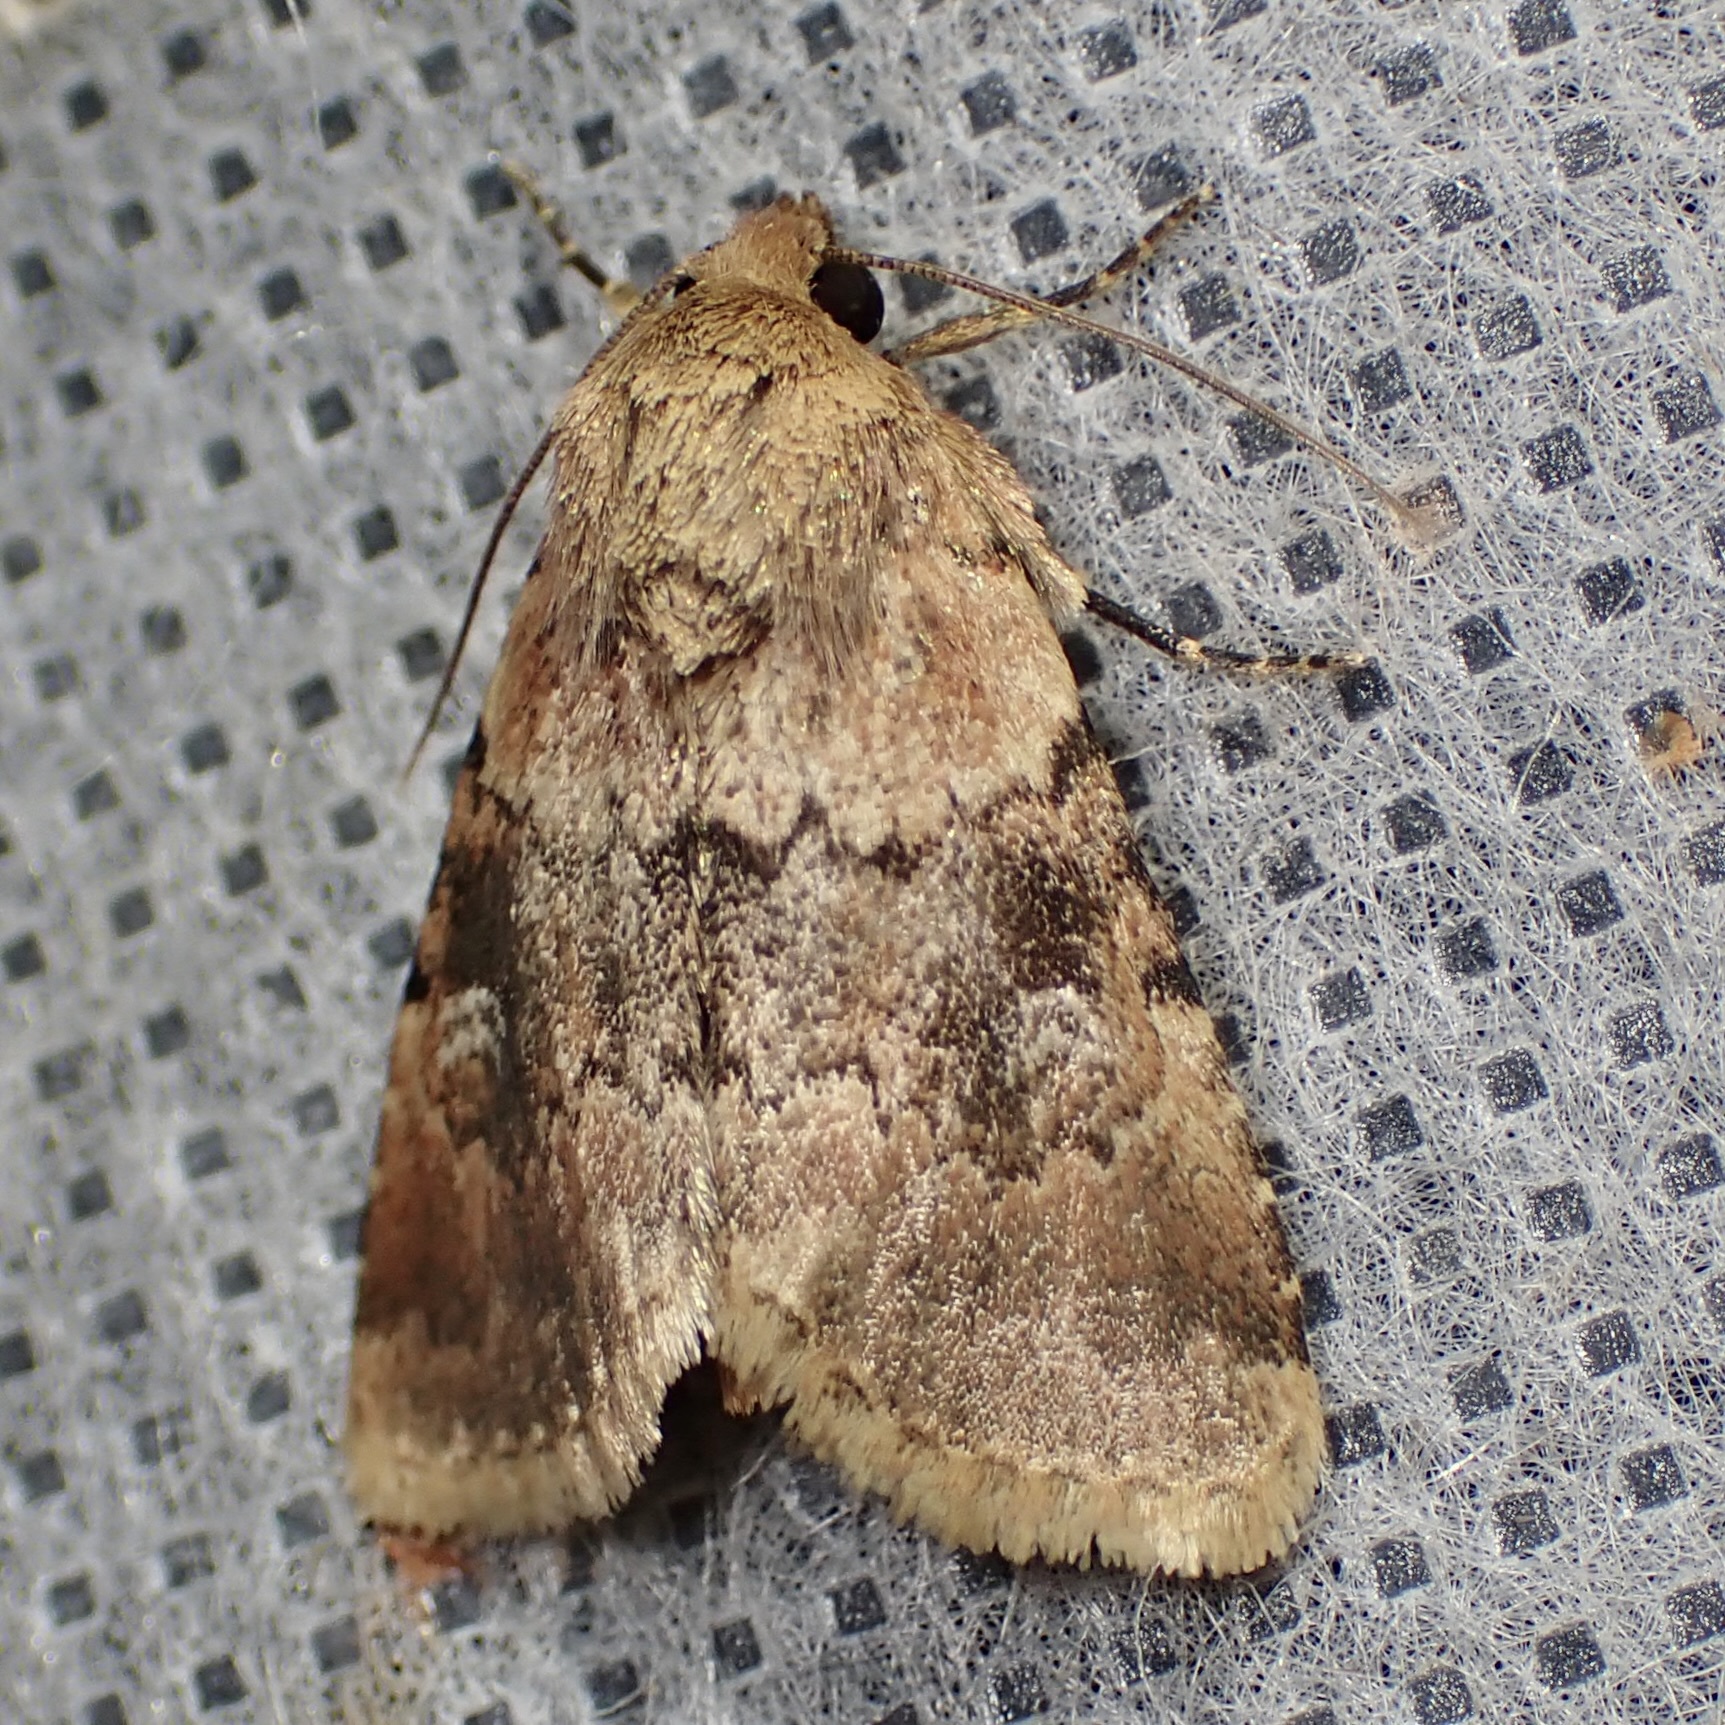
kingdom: Animalia
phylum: Arthropoda
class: Insecta
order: Lepidoptera
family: Noctuidae
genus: Properigea
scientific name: Properigea continens
